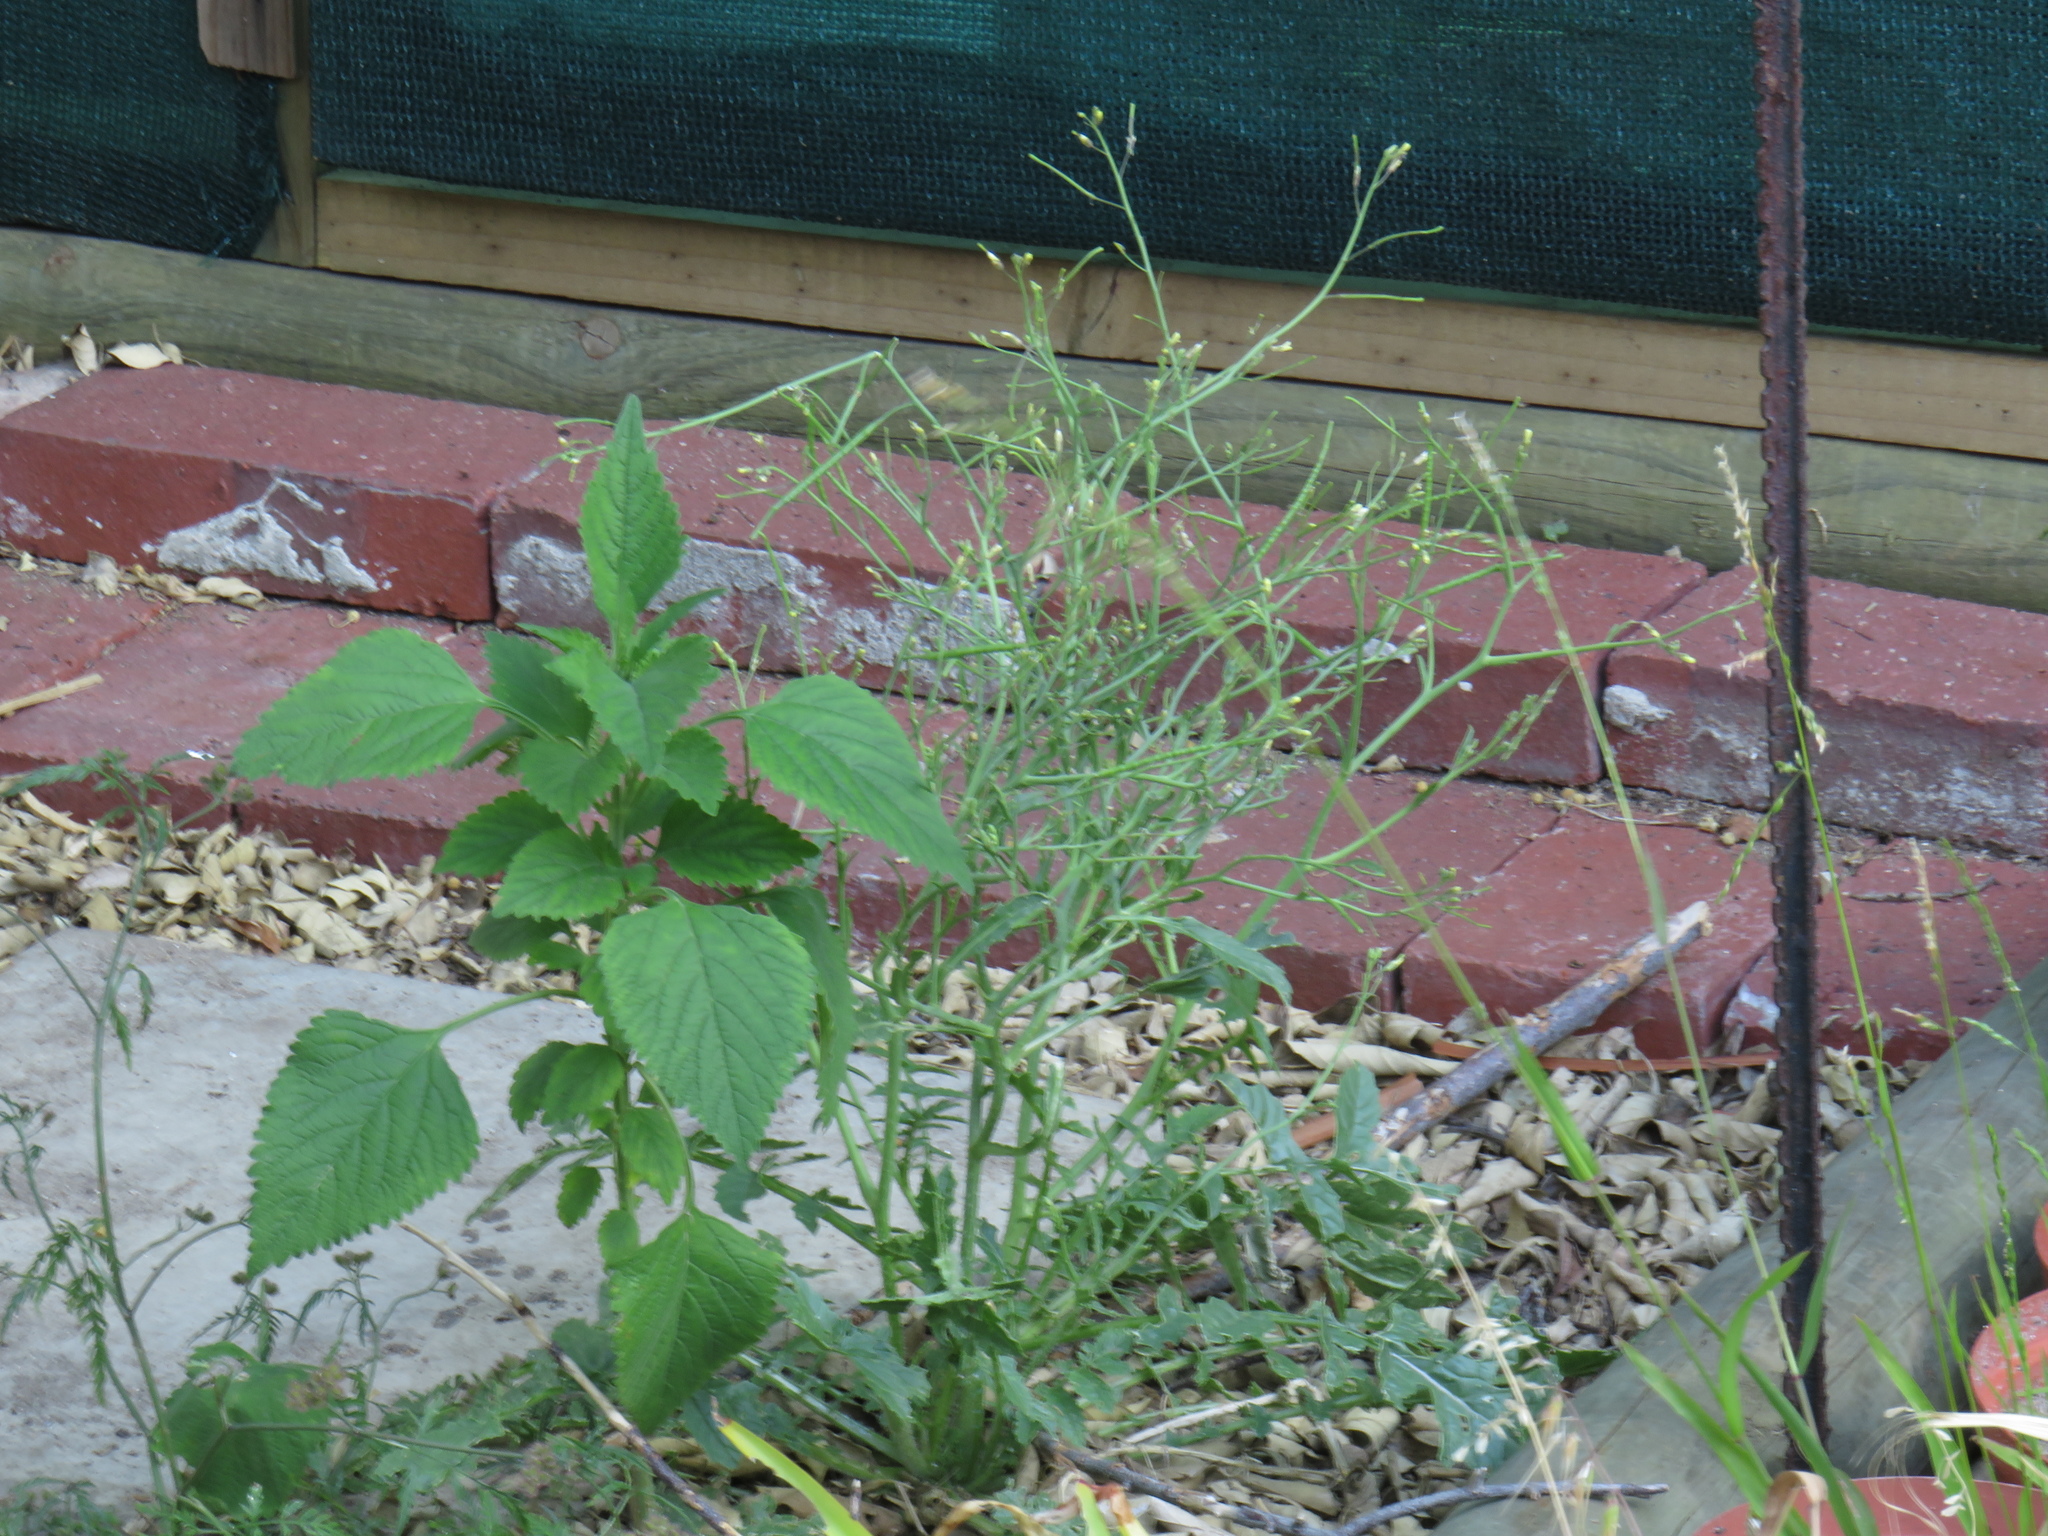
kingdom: Plantae
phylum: Tracheophyta
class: Magnoliopsida
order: Brassicales
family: Brassicaceae
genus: Brassica
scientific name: Brassica tournefortii
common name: Pale cabbage
